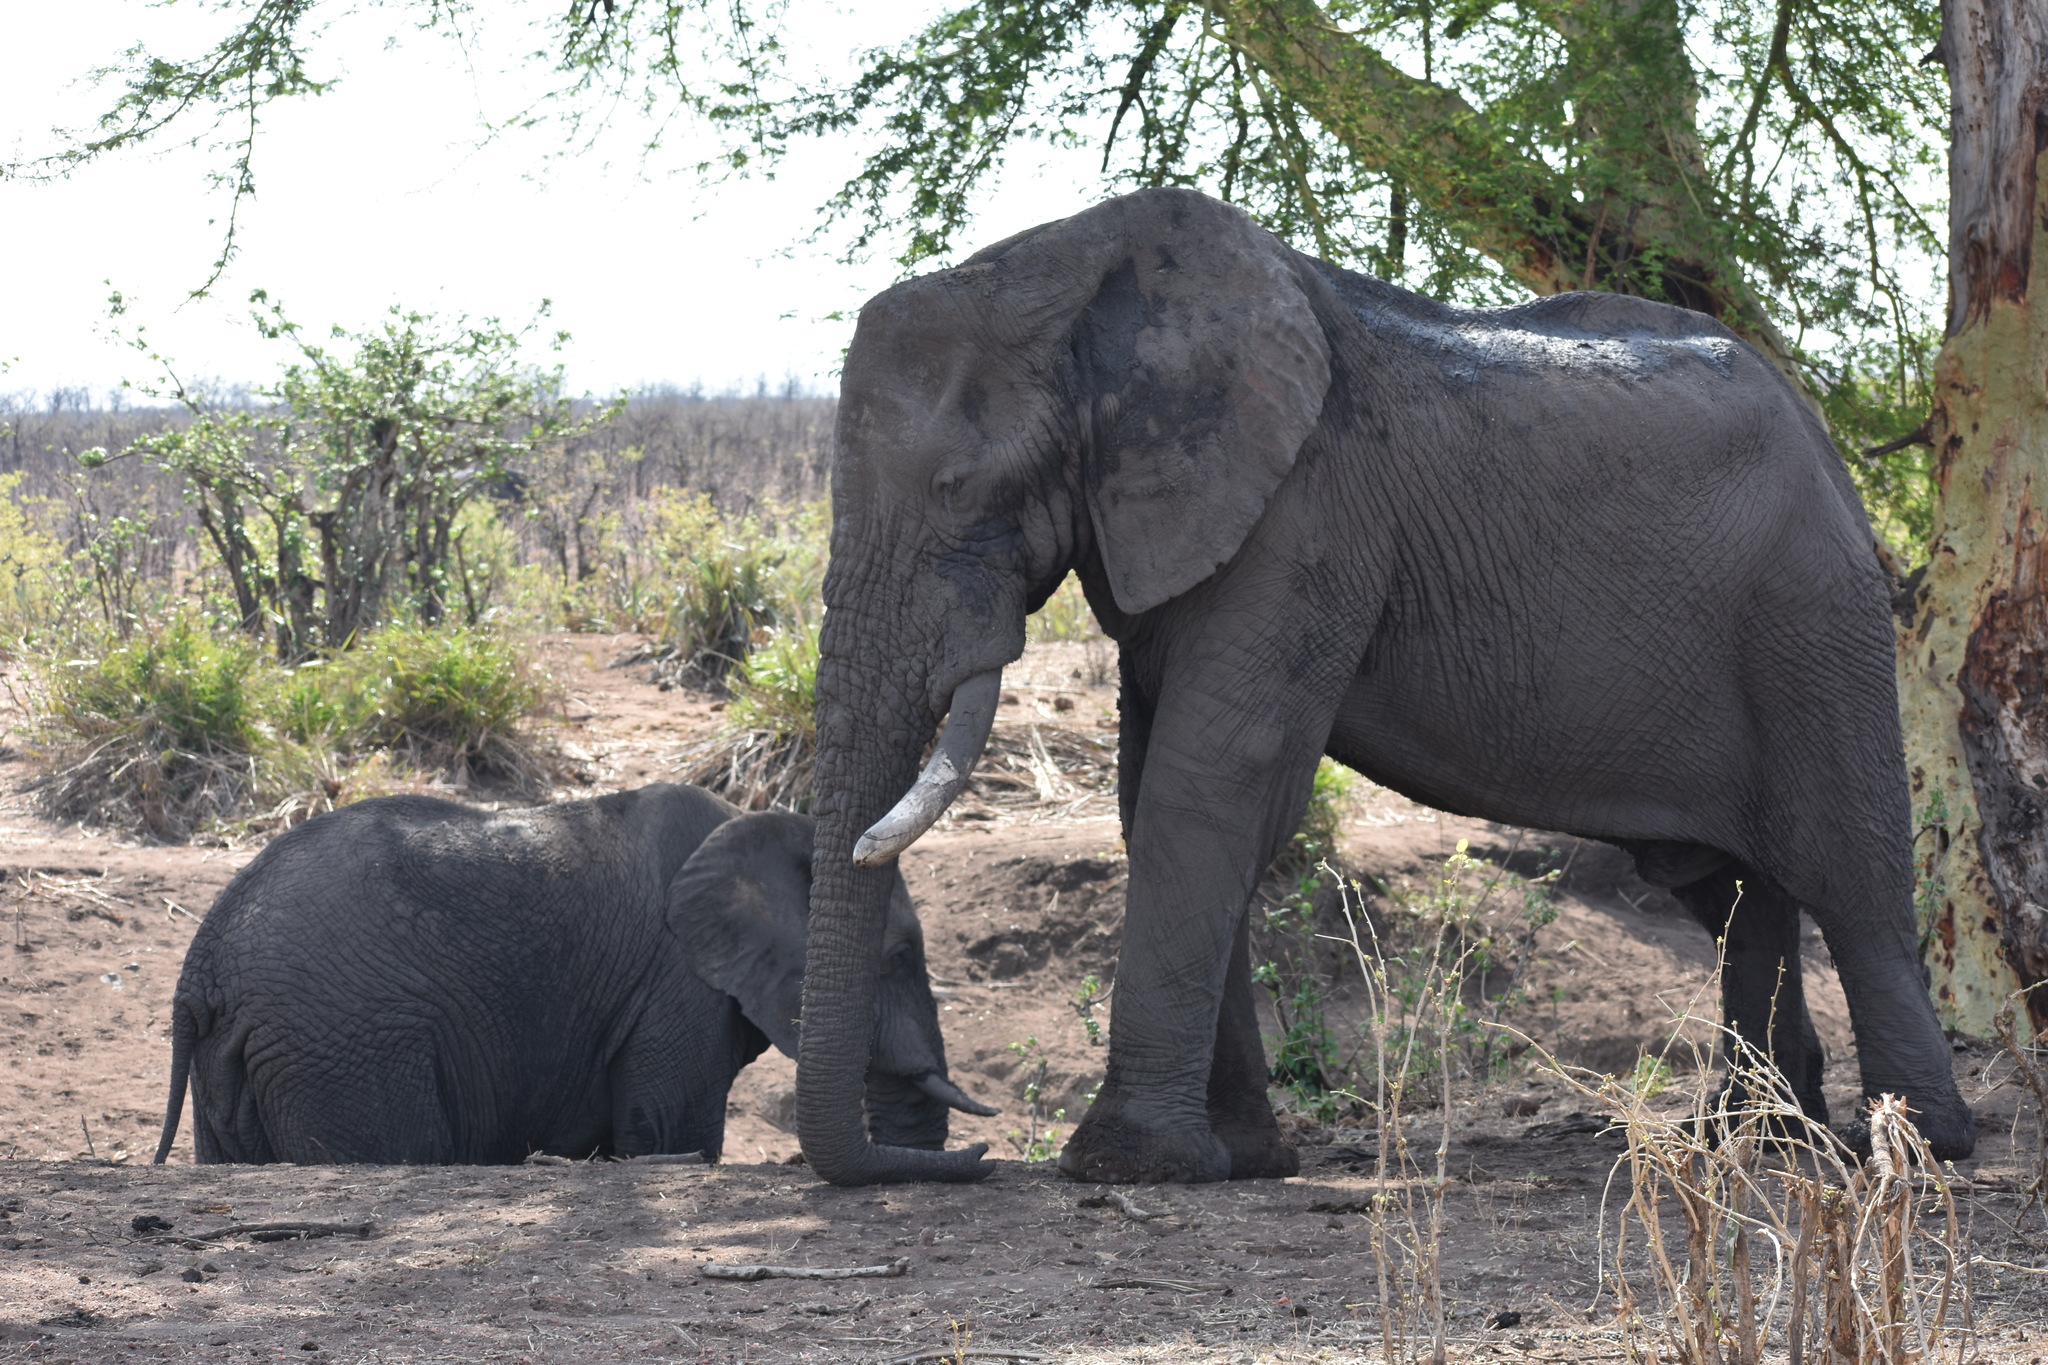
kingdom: Animalia
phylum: Chordata
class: Mammalia
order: Proboscidea
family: Elephantidae
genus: Loxodonta
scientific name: Loxodonta africana
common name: African elephant
